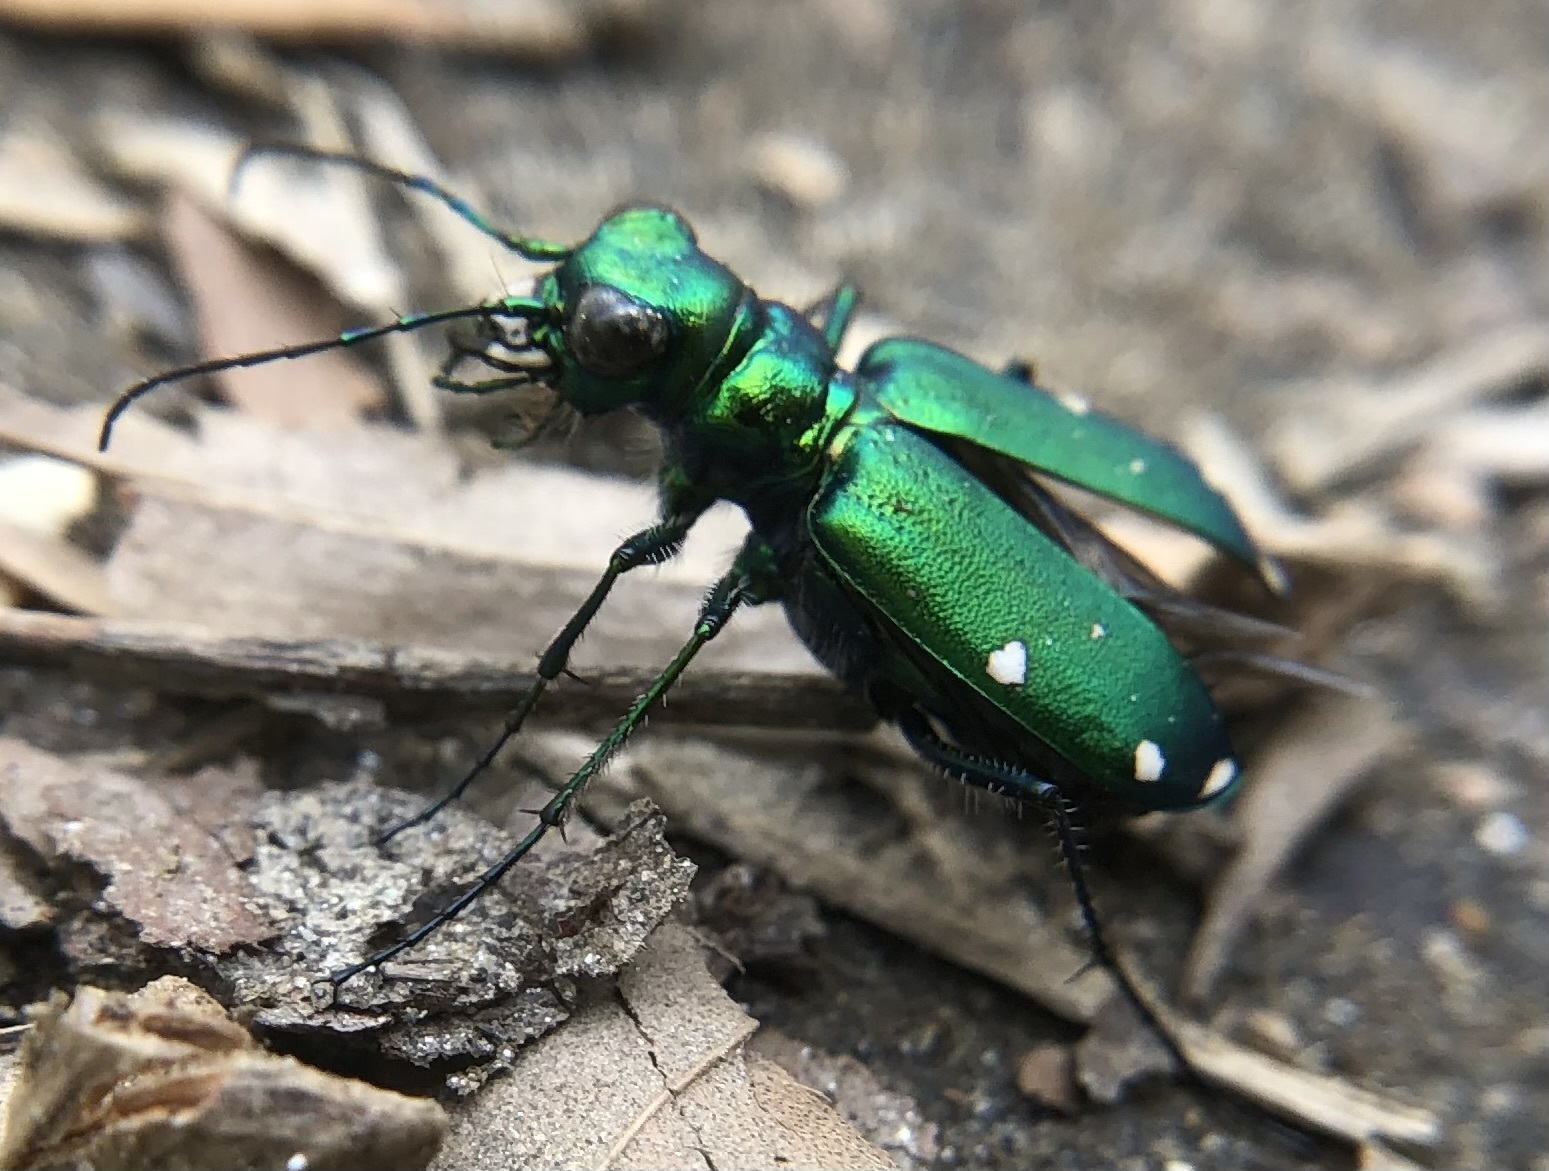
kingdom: Animalia
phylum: Arthropoda
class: Insecta
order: Coleoptera
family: Carabidae
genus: Cicindela
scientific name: Cicindela sexguttata
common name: Six-spotted tiger beetle
